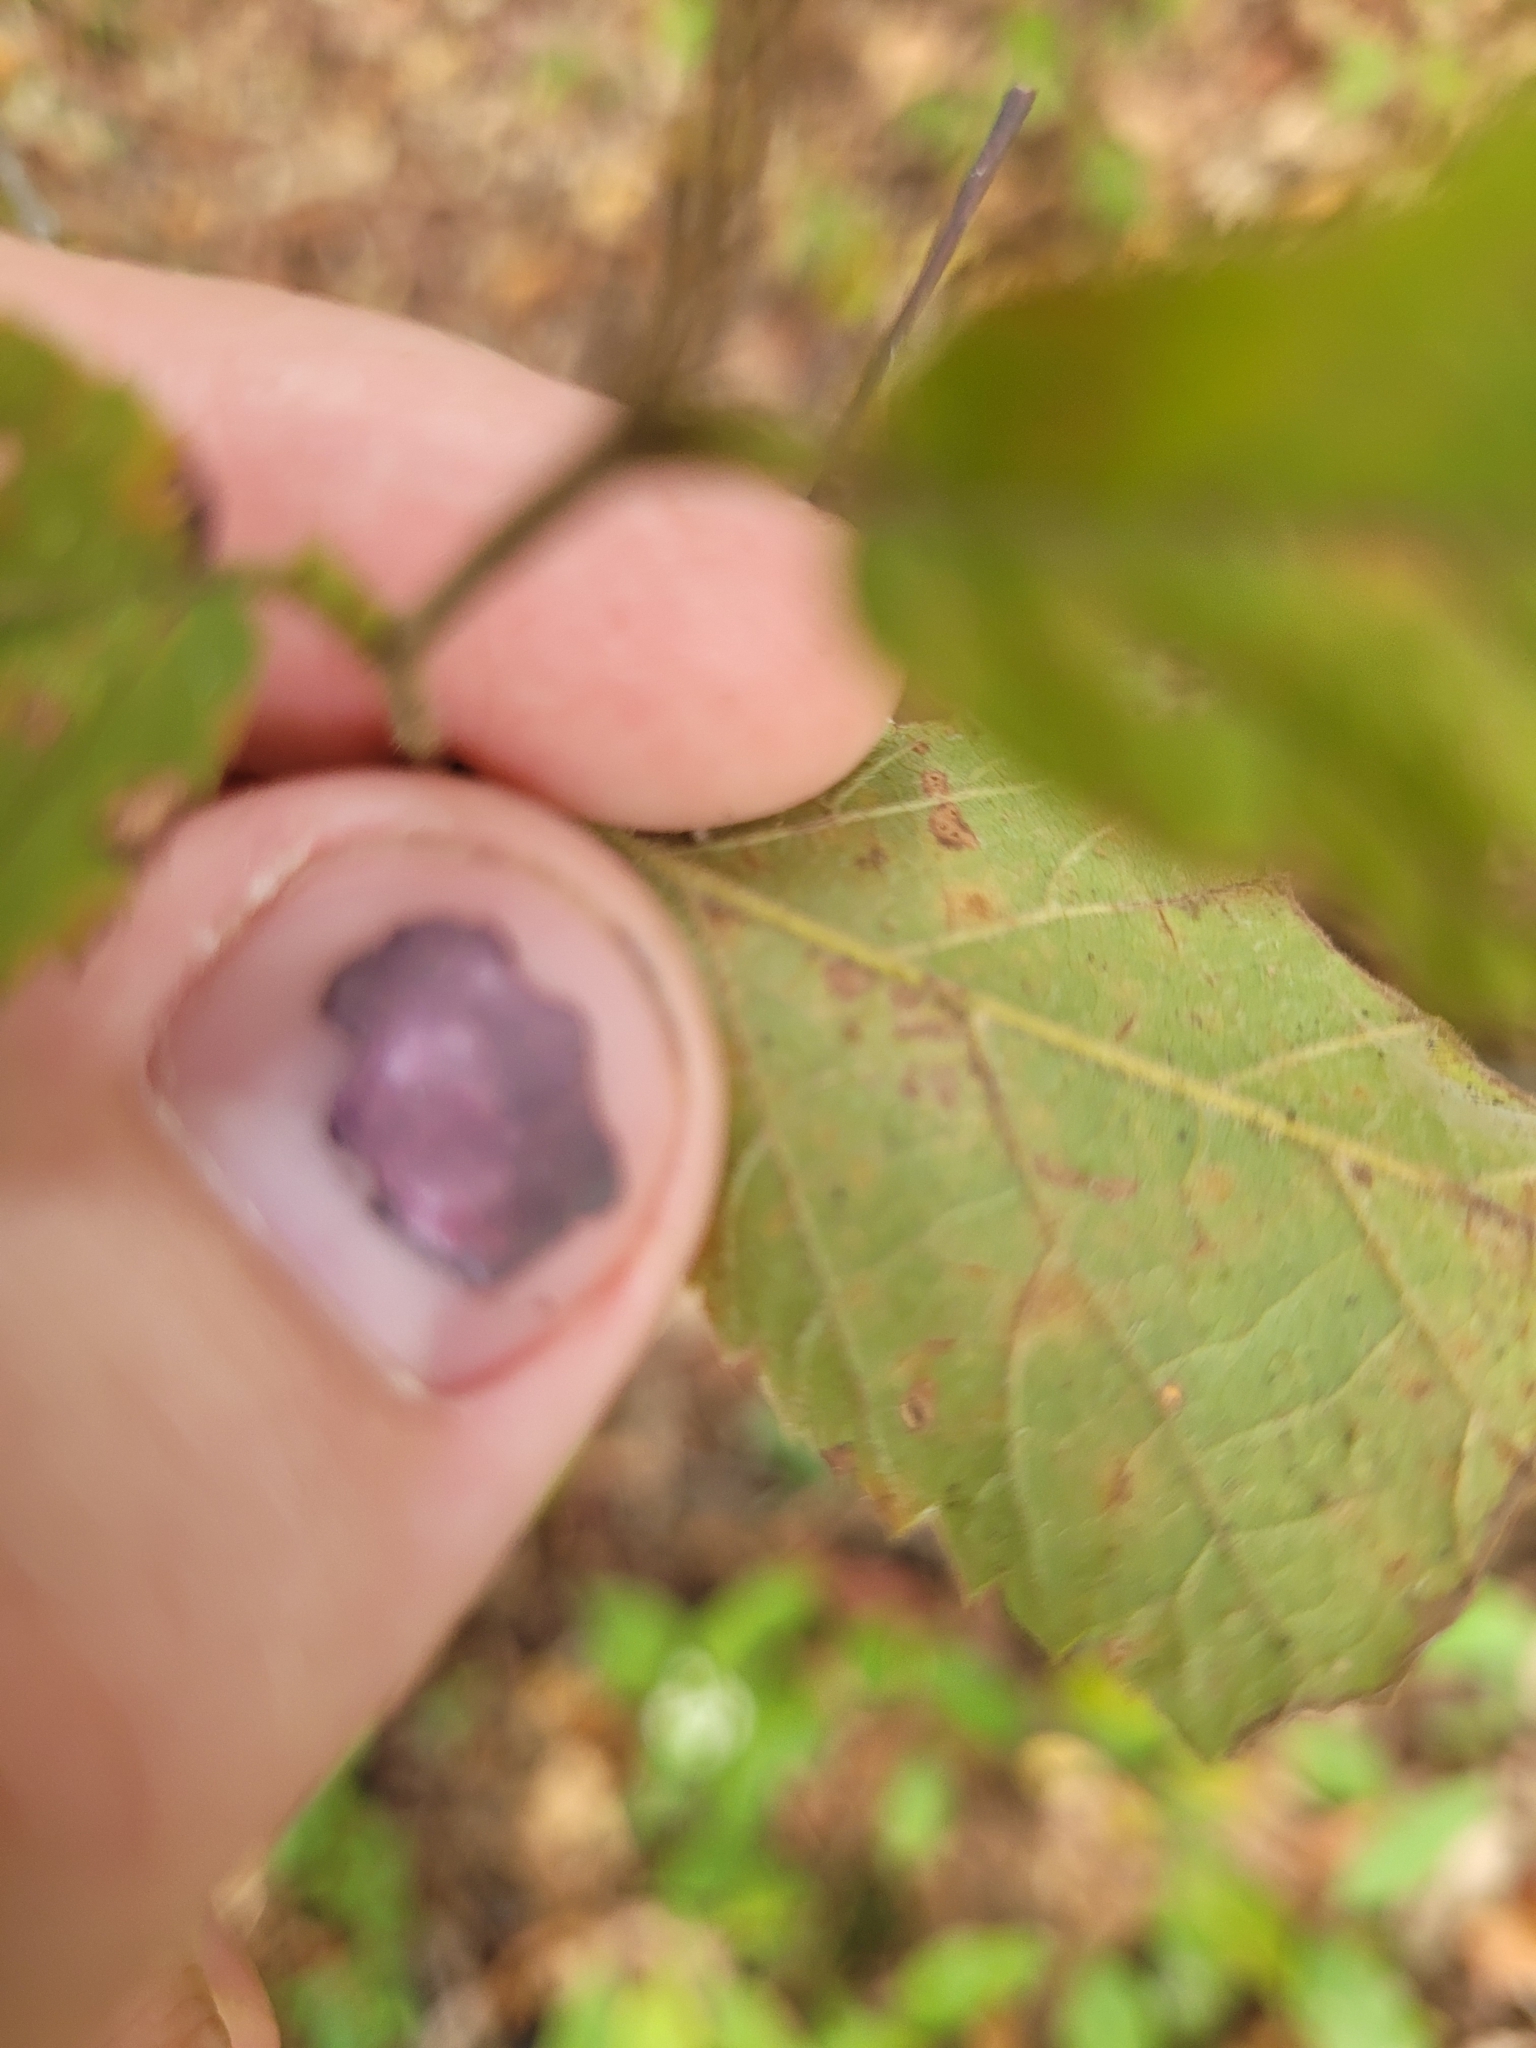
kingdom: Animalia
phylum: Arthropoda
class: Insecta
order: Lepidoptera
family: Gracillariidae
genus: Caloptilia
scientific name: Caloptilia ostryaeella
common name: Ironwood leafcone moth
